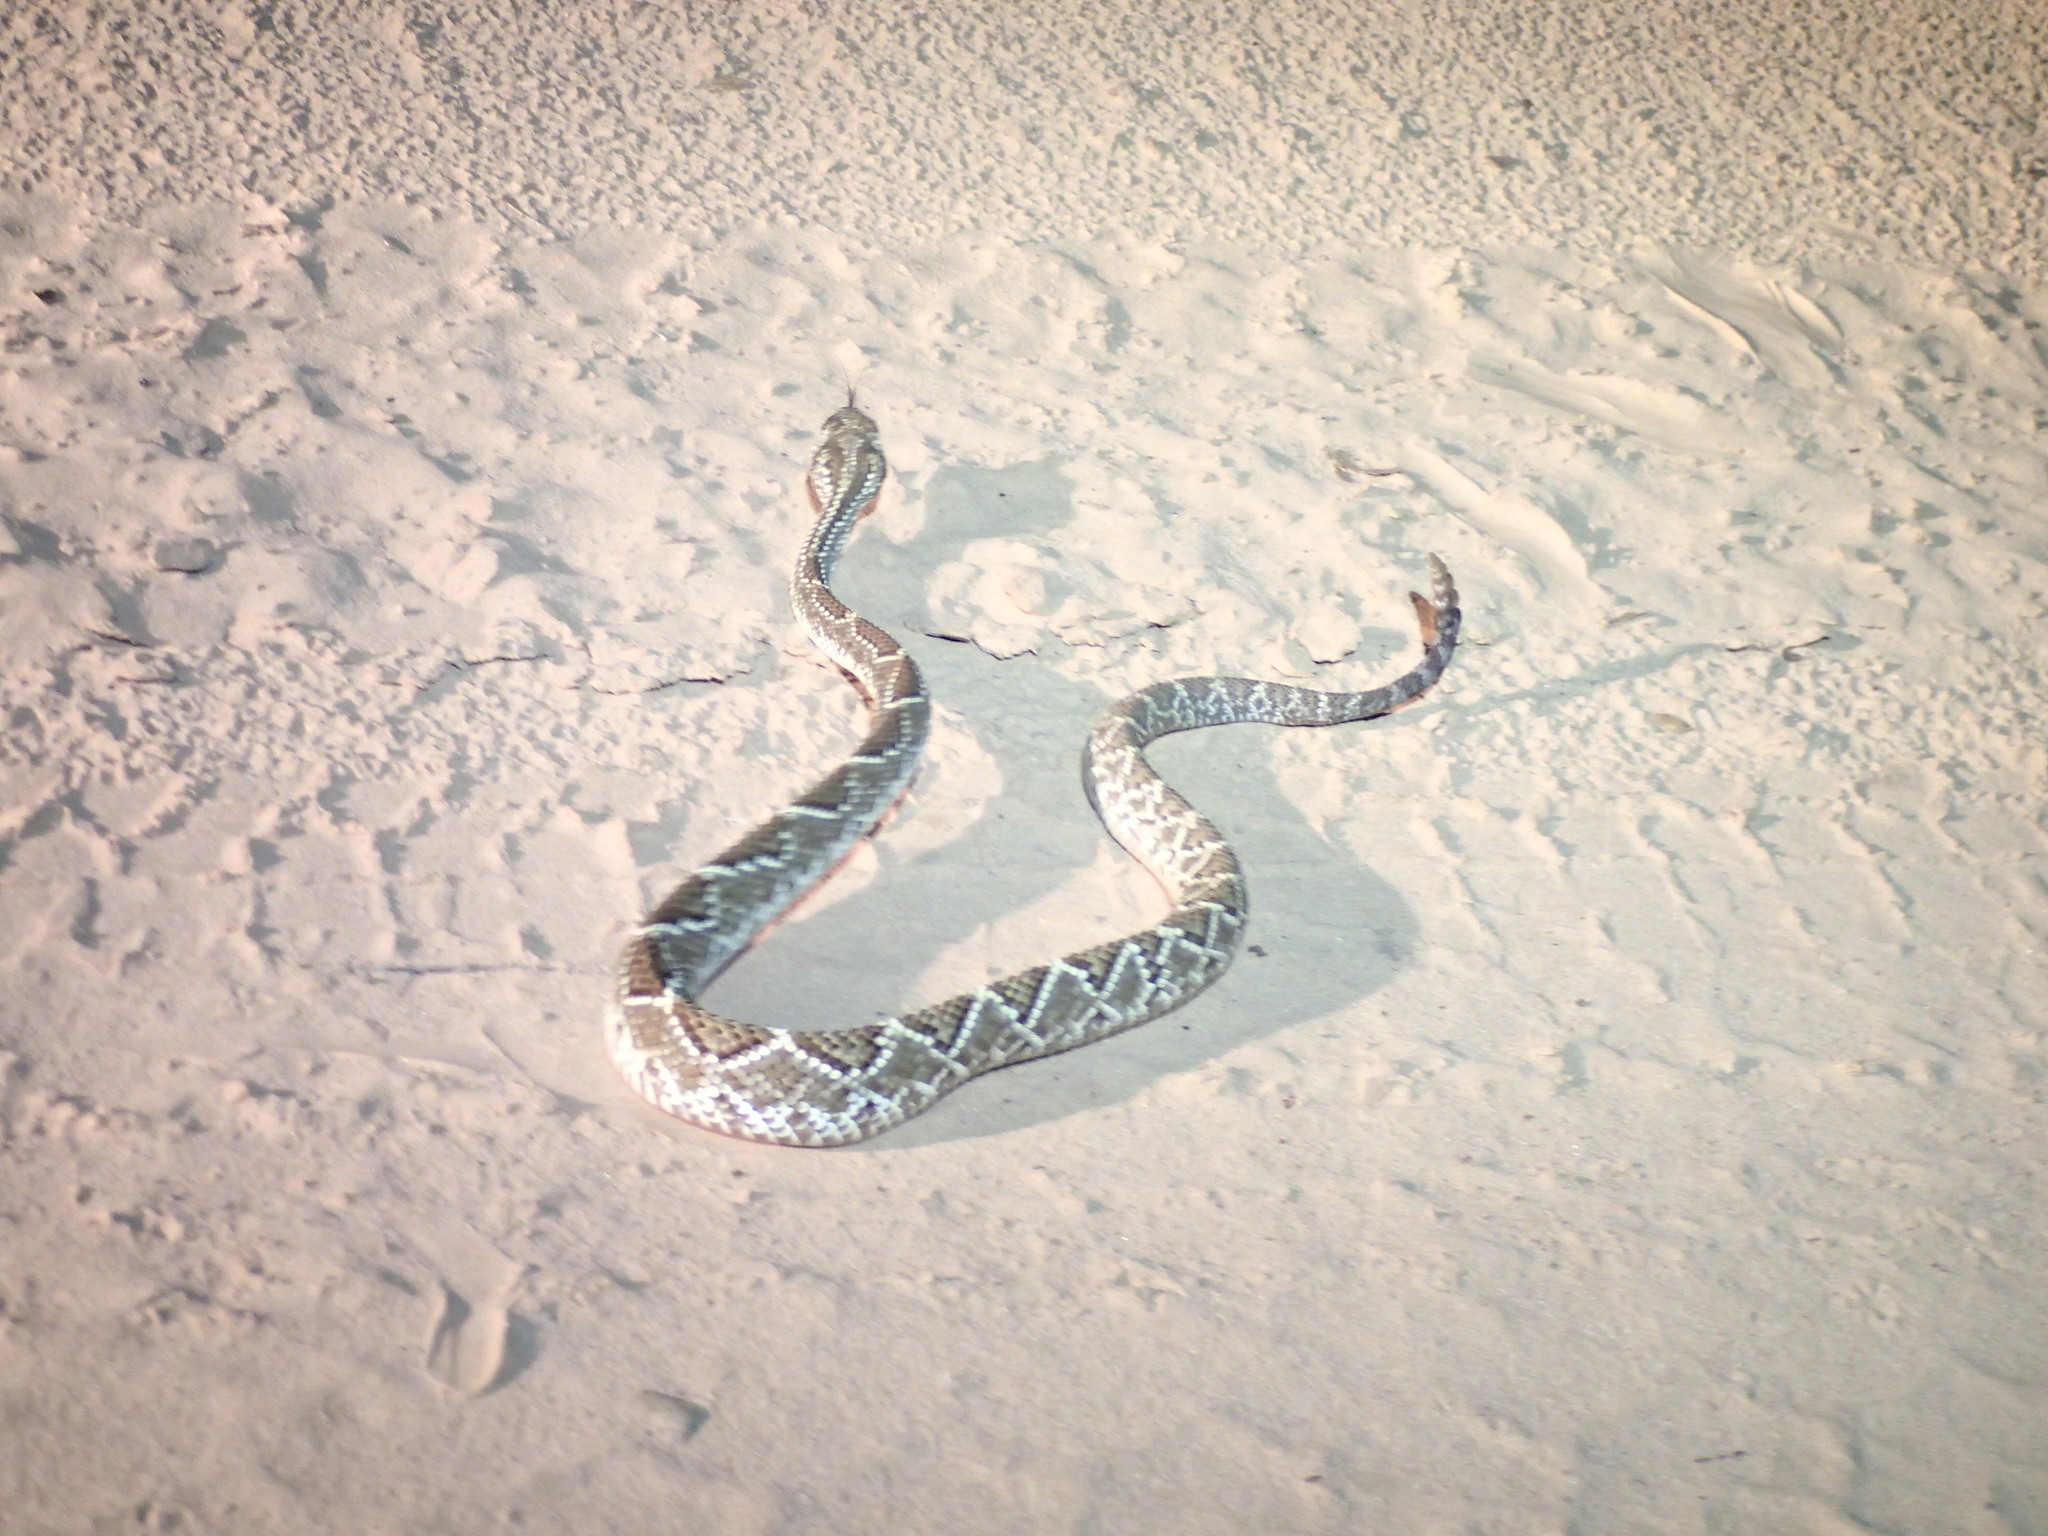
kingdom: Animalia
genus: Crotalus
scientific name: Crotalus durissus
